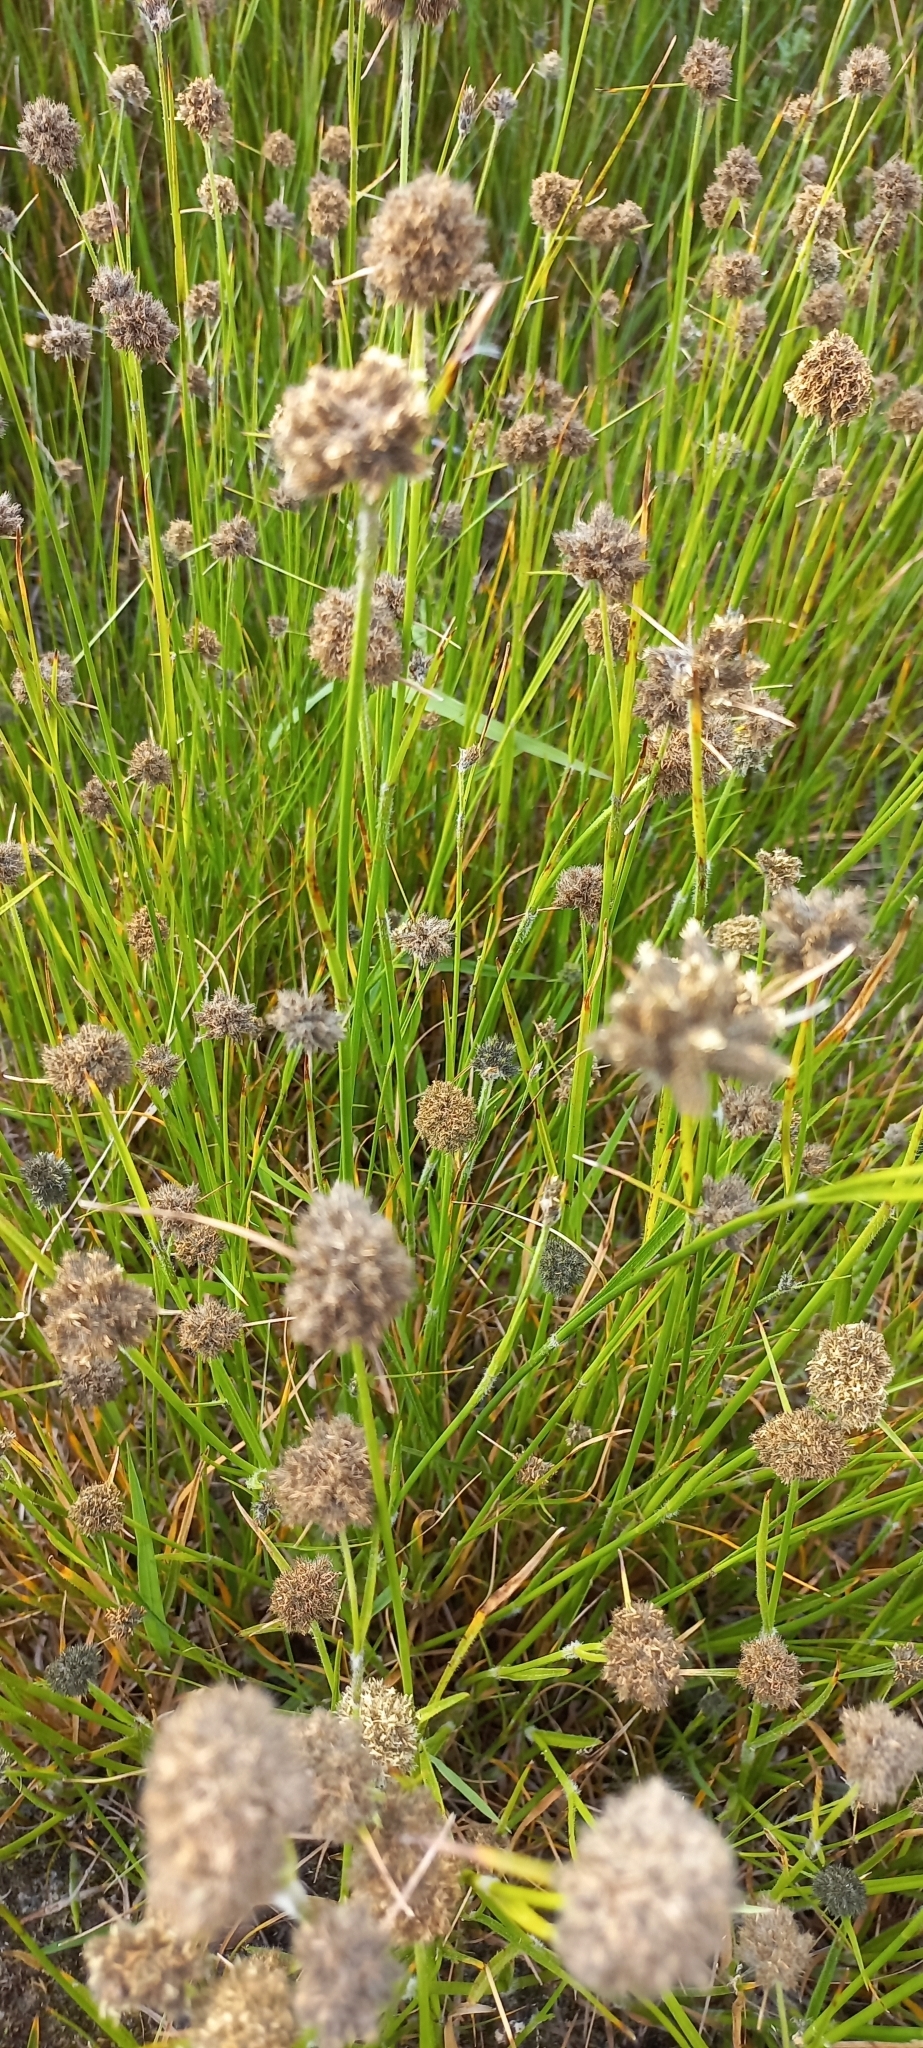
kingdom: Plantae
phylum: Tracheophyta
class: Liliopsida
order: Poales
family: Cyperaceae
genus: Fuirena
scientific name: Fuirena hirsuta
